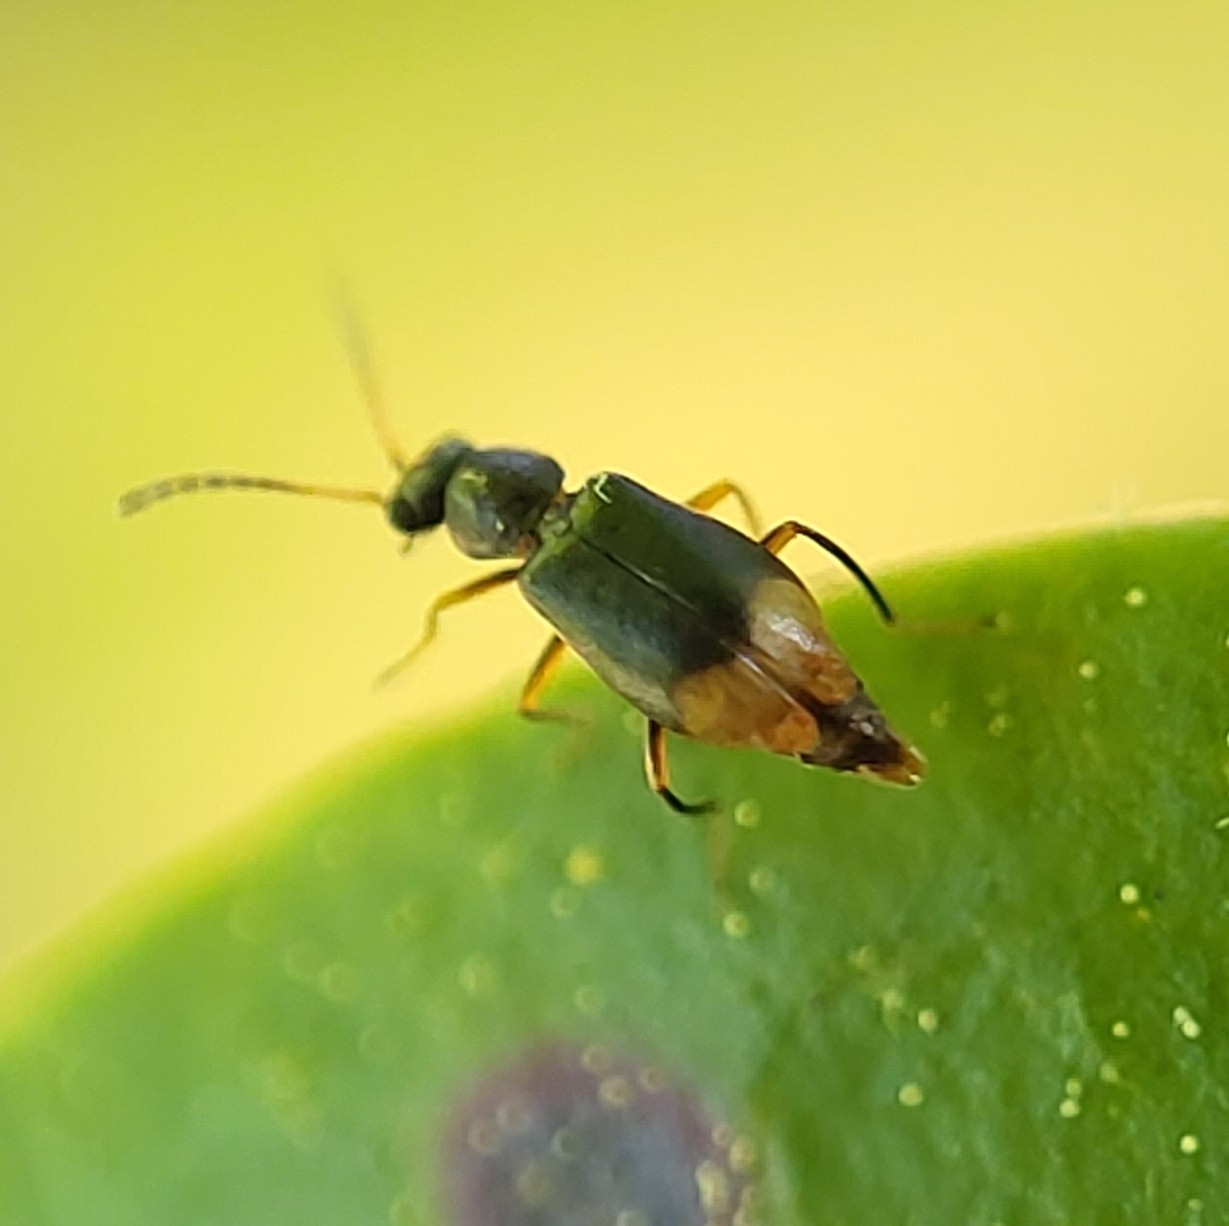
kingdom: Animalia
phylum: Arthropoda
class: Insecta
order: Coleoptera
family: Melyridae
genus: Hypebaeus
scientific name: Hypebaeus
